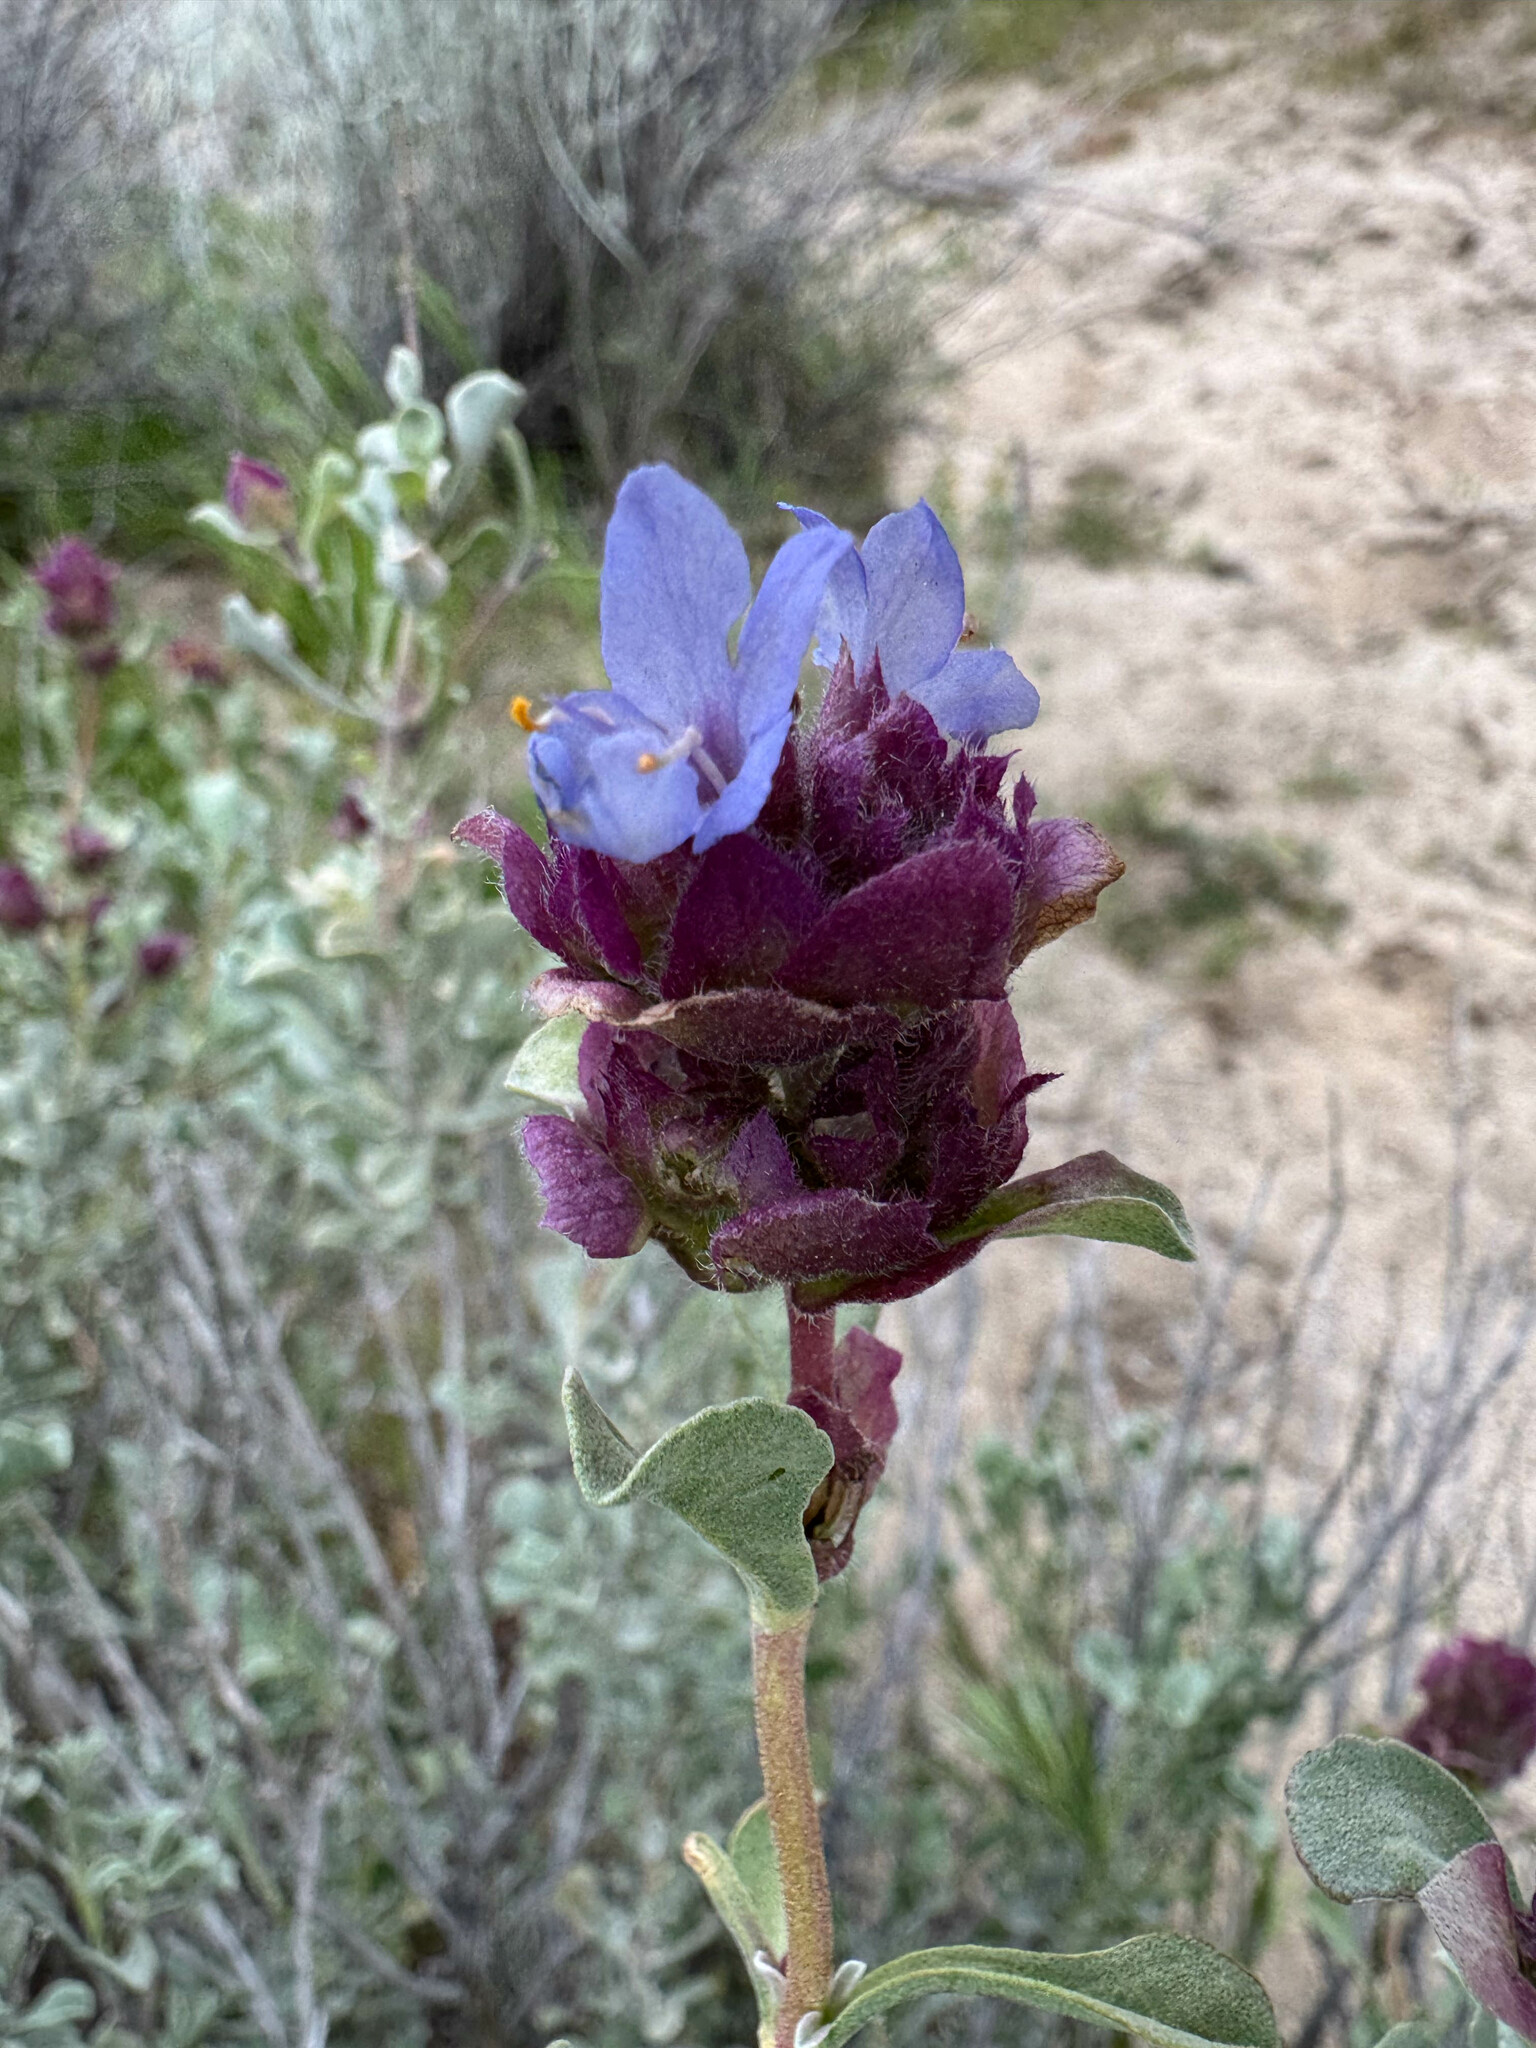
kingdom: Plantae
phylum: Tracheophyta
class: Magnoliopsida
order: Lamiales
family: Lamiaceae
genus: Salvia
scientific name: Salvia dorrii
